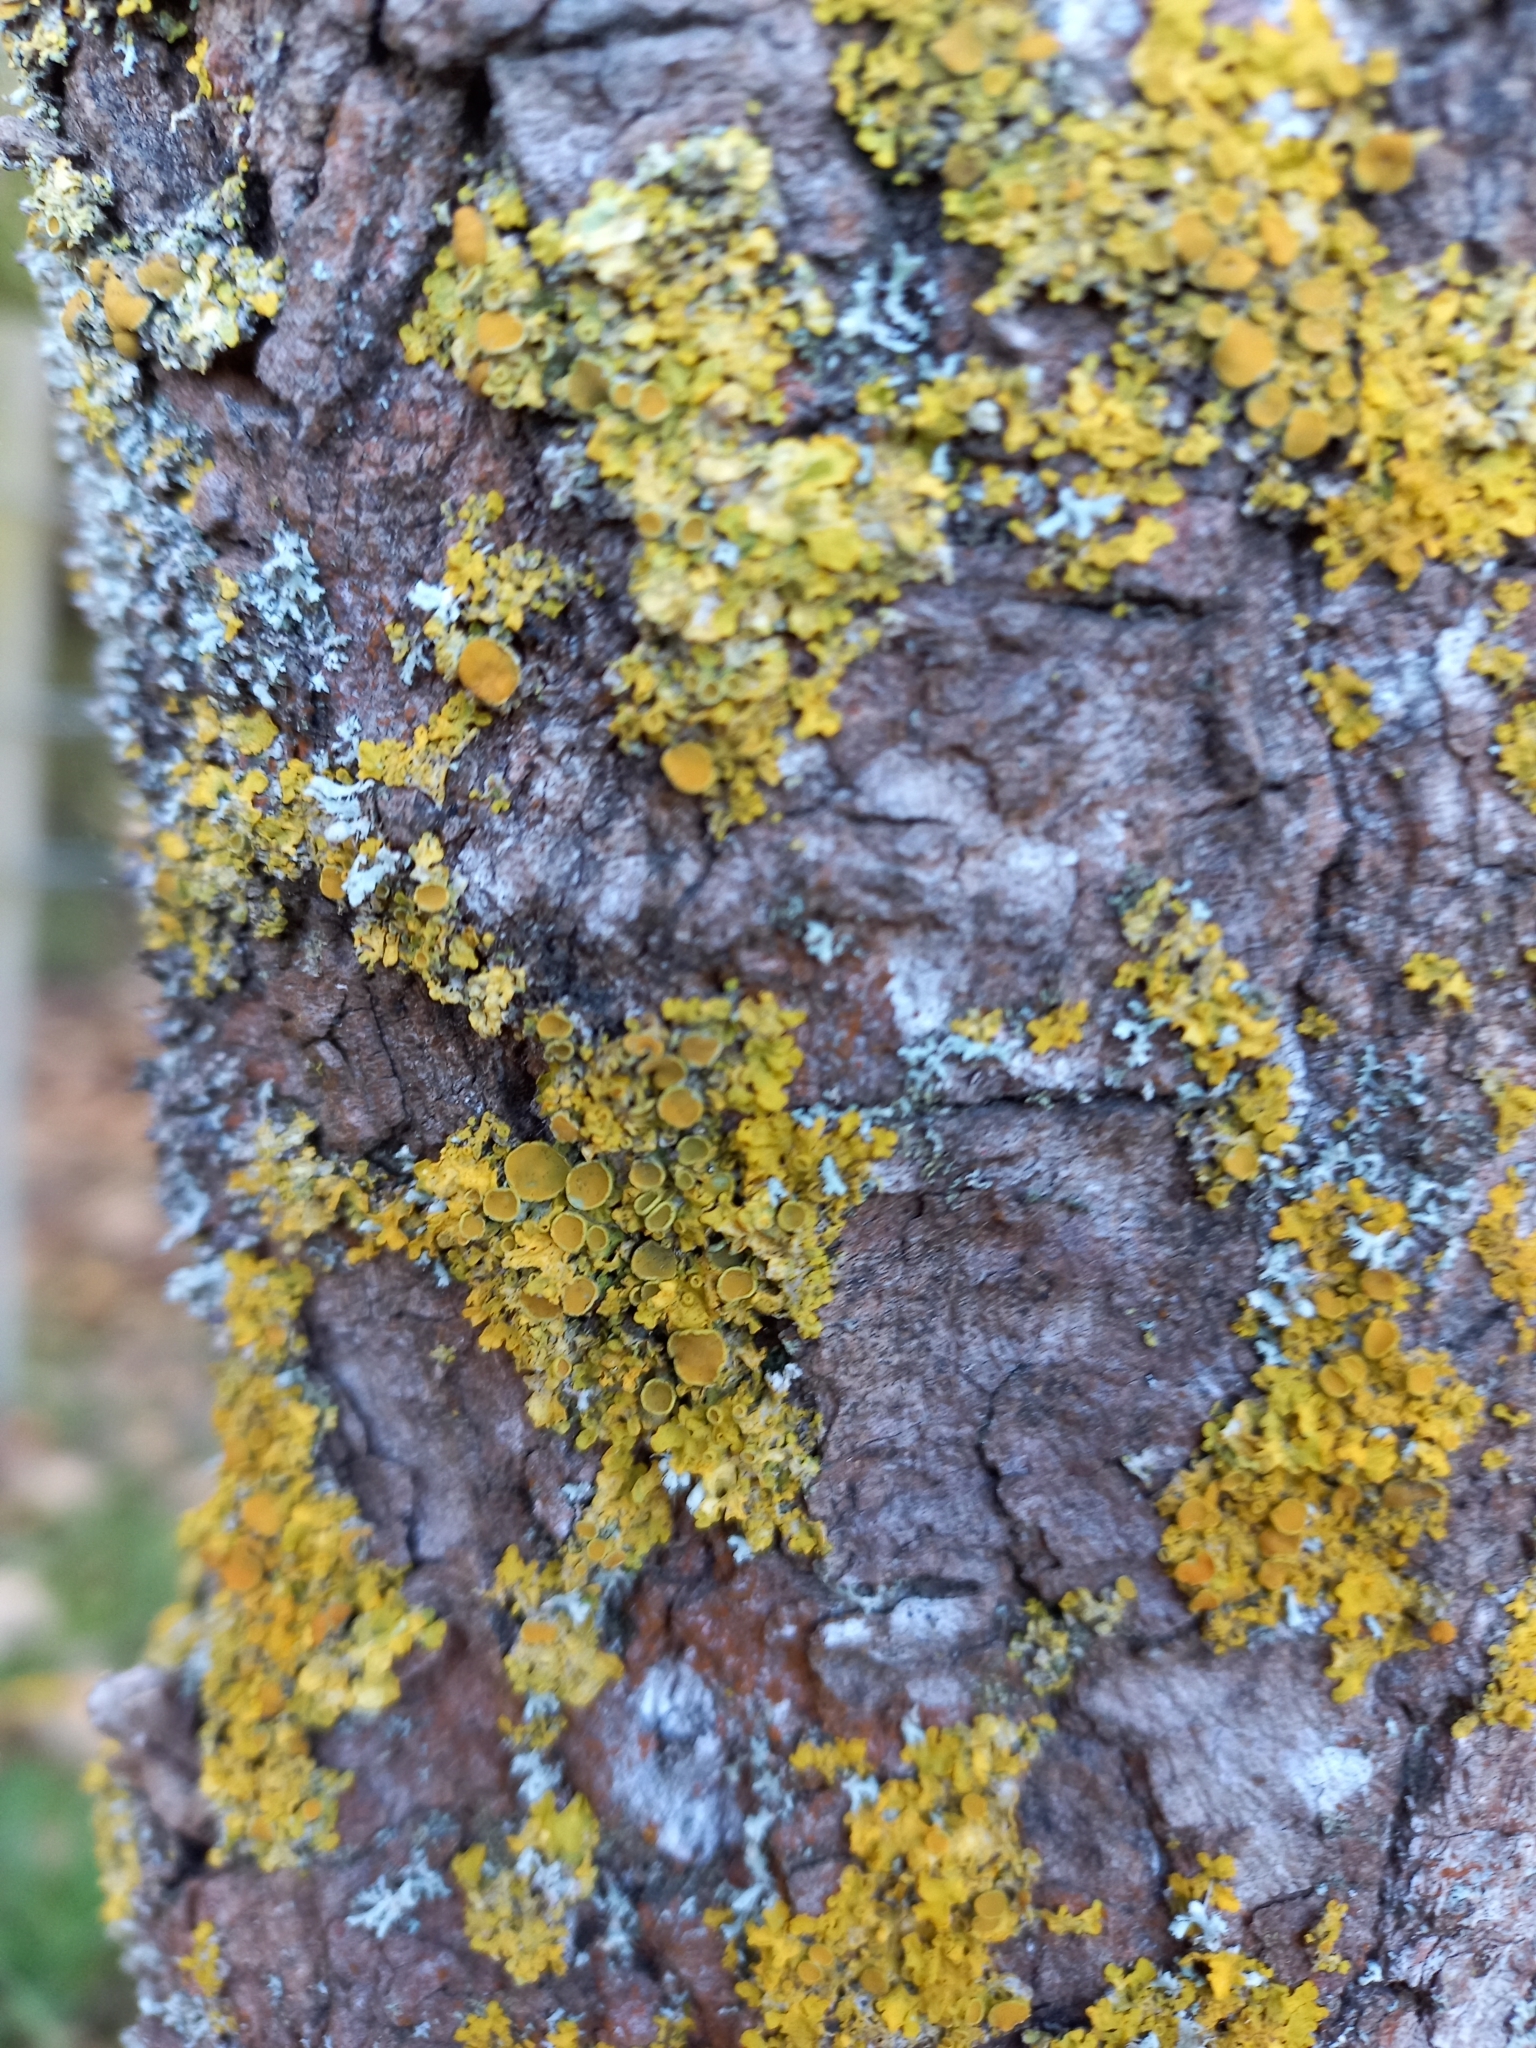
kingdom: Fungi
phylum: Ascomycota
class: Lecanoromycetes
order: Teloschistales
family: Teloschistaceae
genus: Xanthoria
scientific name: Xanthoria parietina
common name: Common orange lichen
